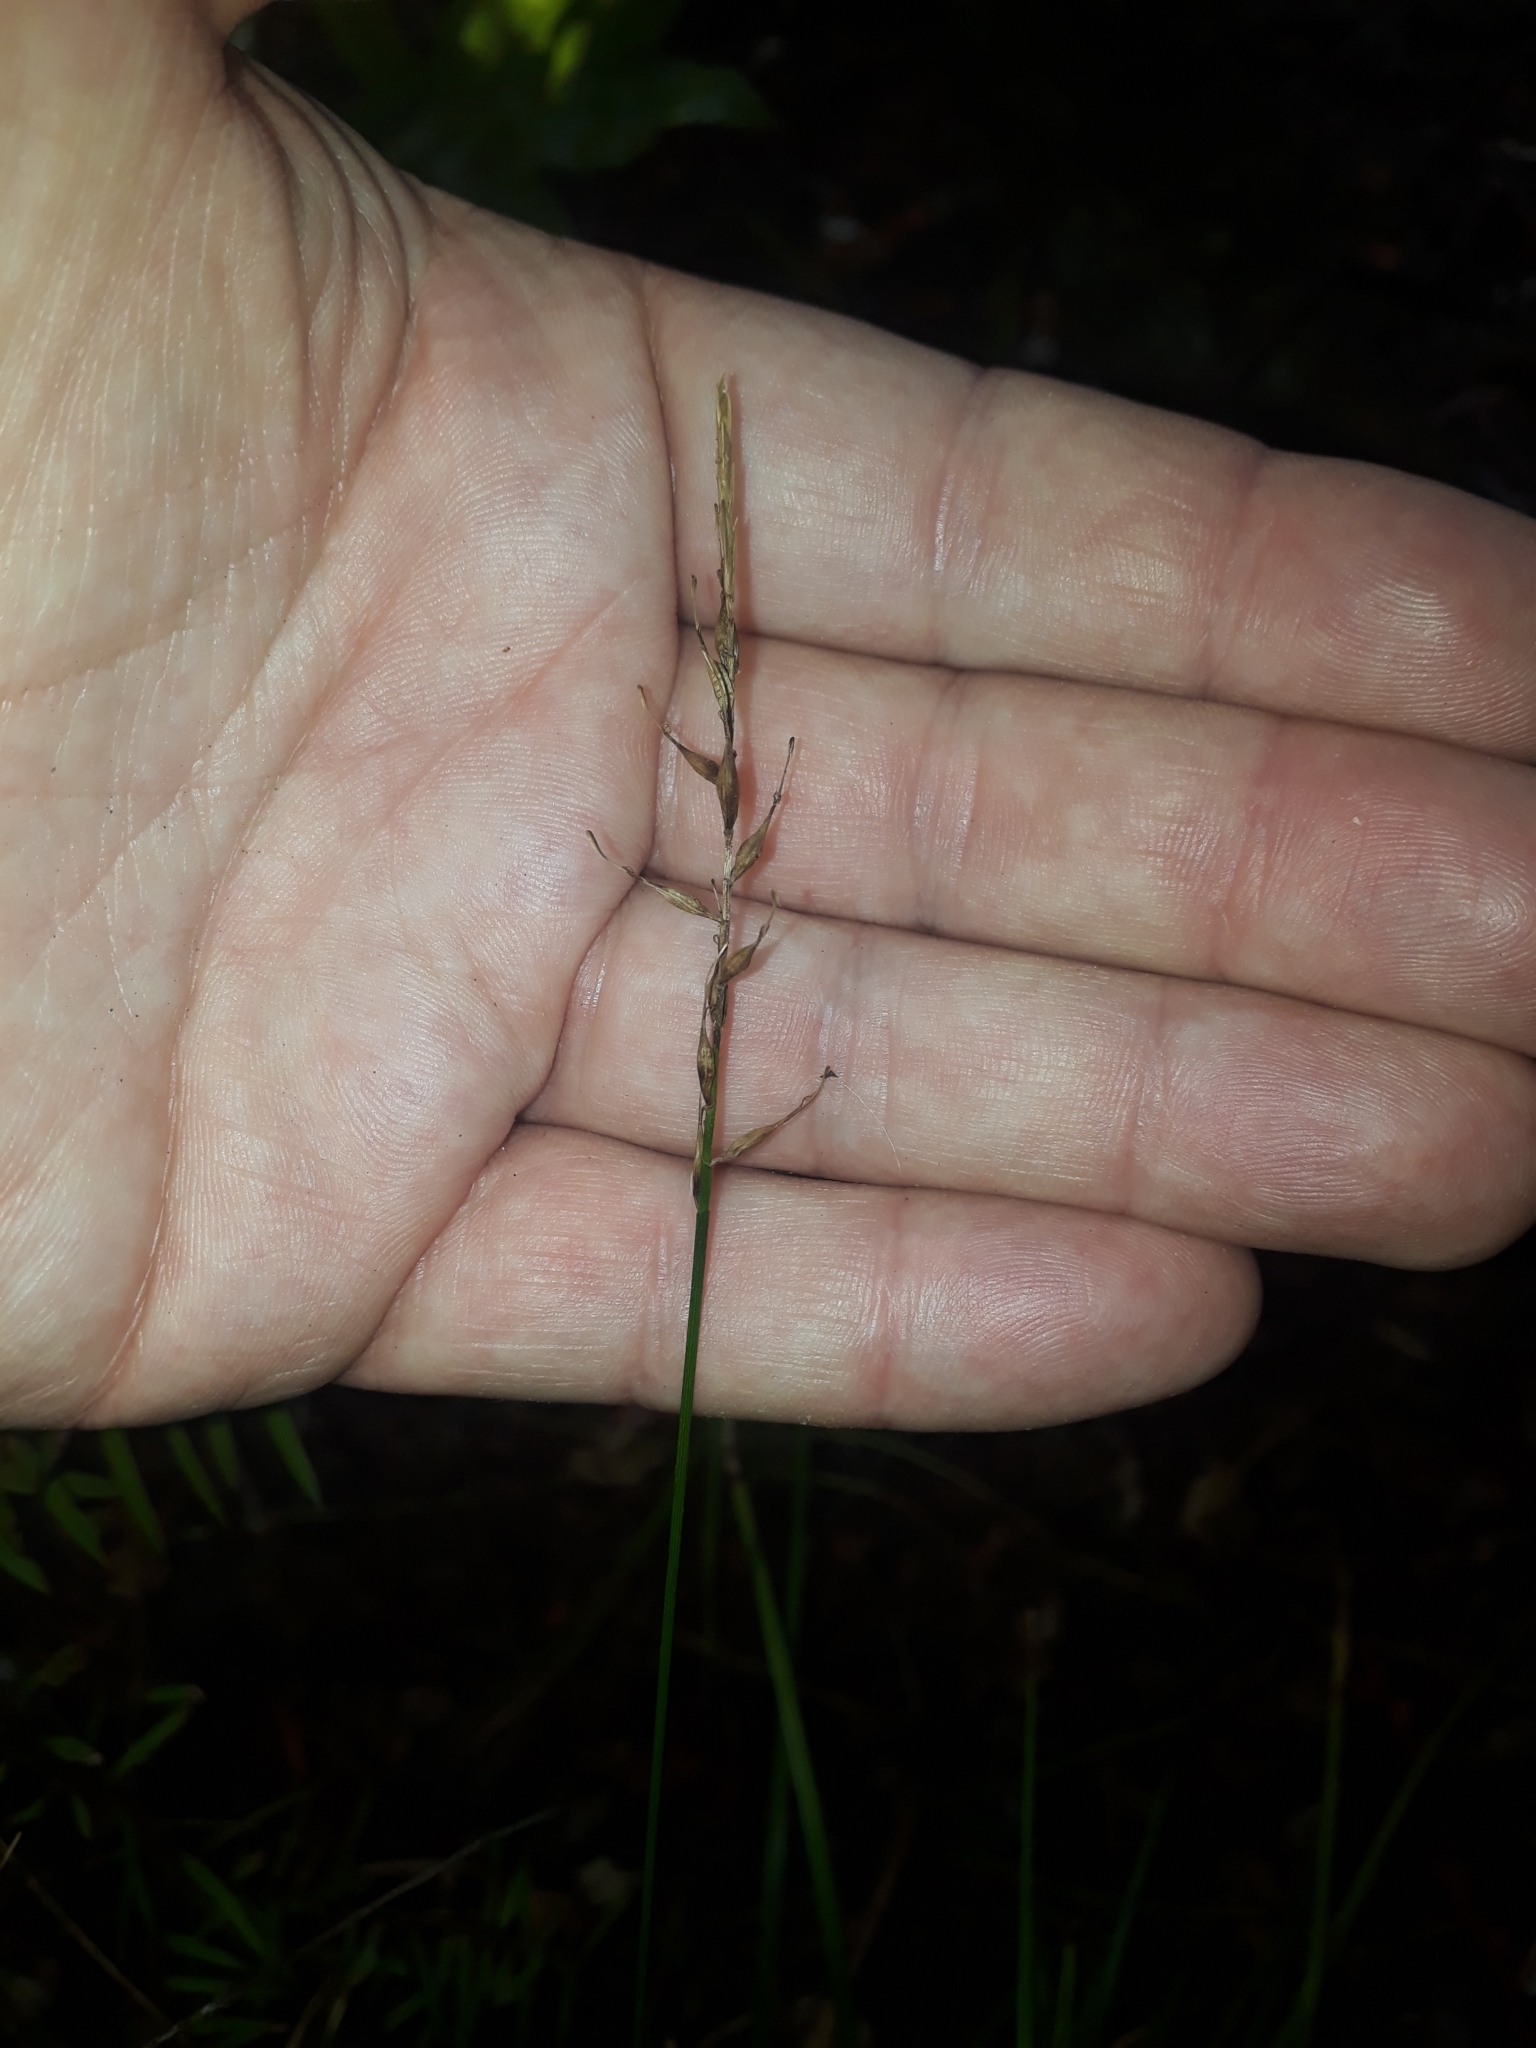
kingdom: Plantae
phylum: Tracheophyta
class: Liliopsida
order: Poales
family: Cyperaceae
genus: Carex
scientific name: Carex zotovii
